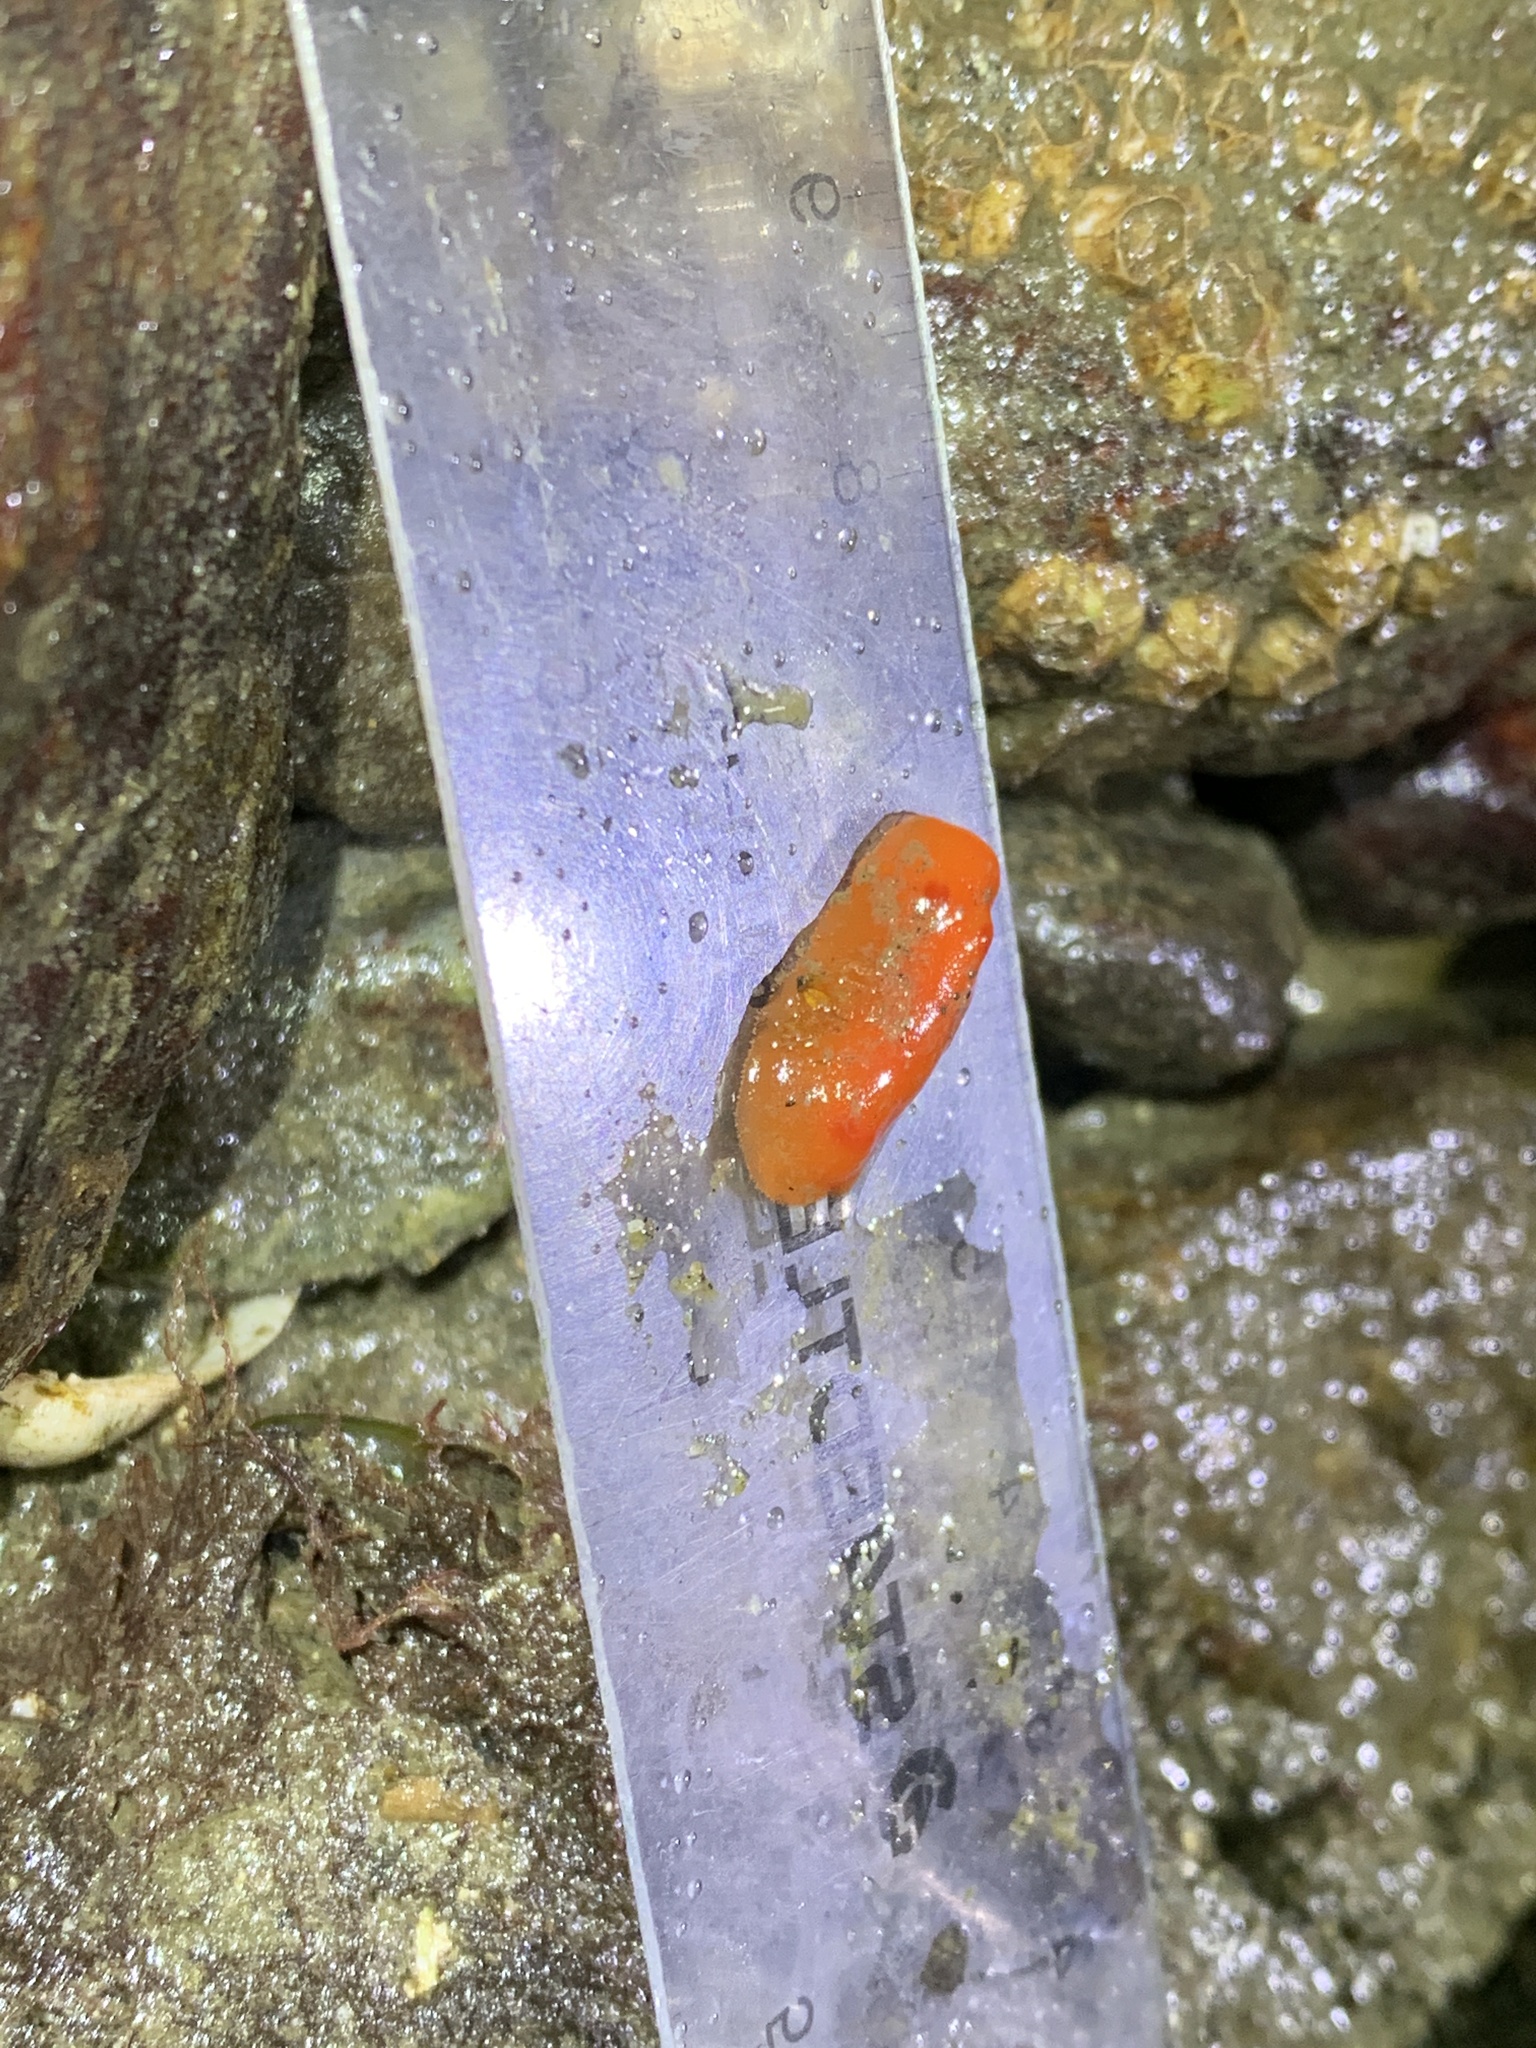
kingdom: Animalia
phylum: Mollusca
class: Gastropoda
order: Nudibranchia
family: Discodorididae
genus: Rostanga
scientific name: Rostanga pulchra
